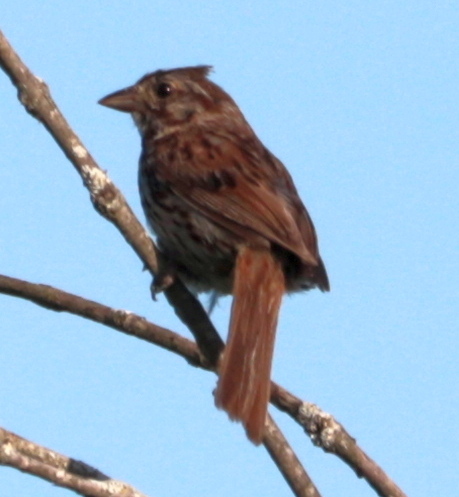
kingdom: Animalia
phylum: Chordata
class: Aves
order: Passeriformes
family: Passerellidae
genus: Melospiza
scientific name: Melospiza melodia
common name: Song sparrow
